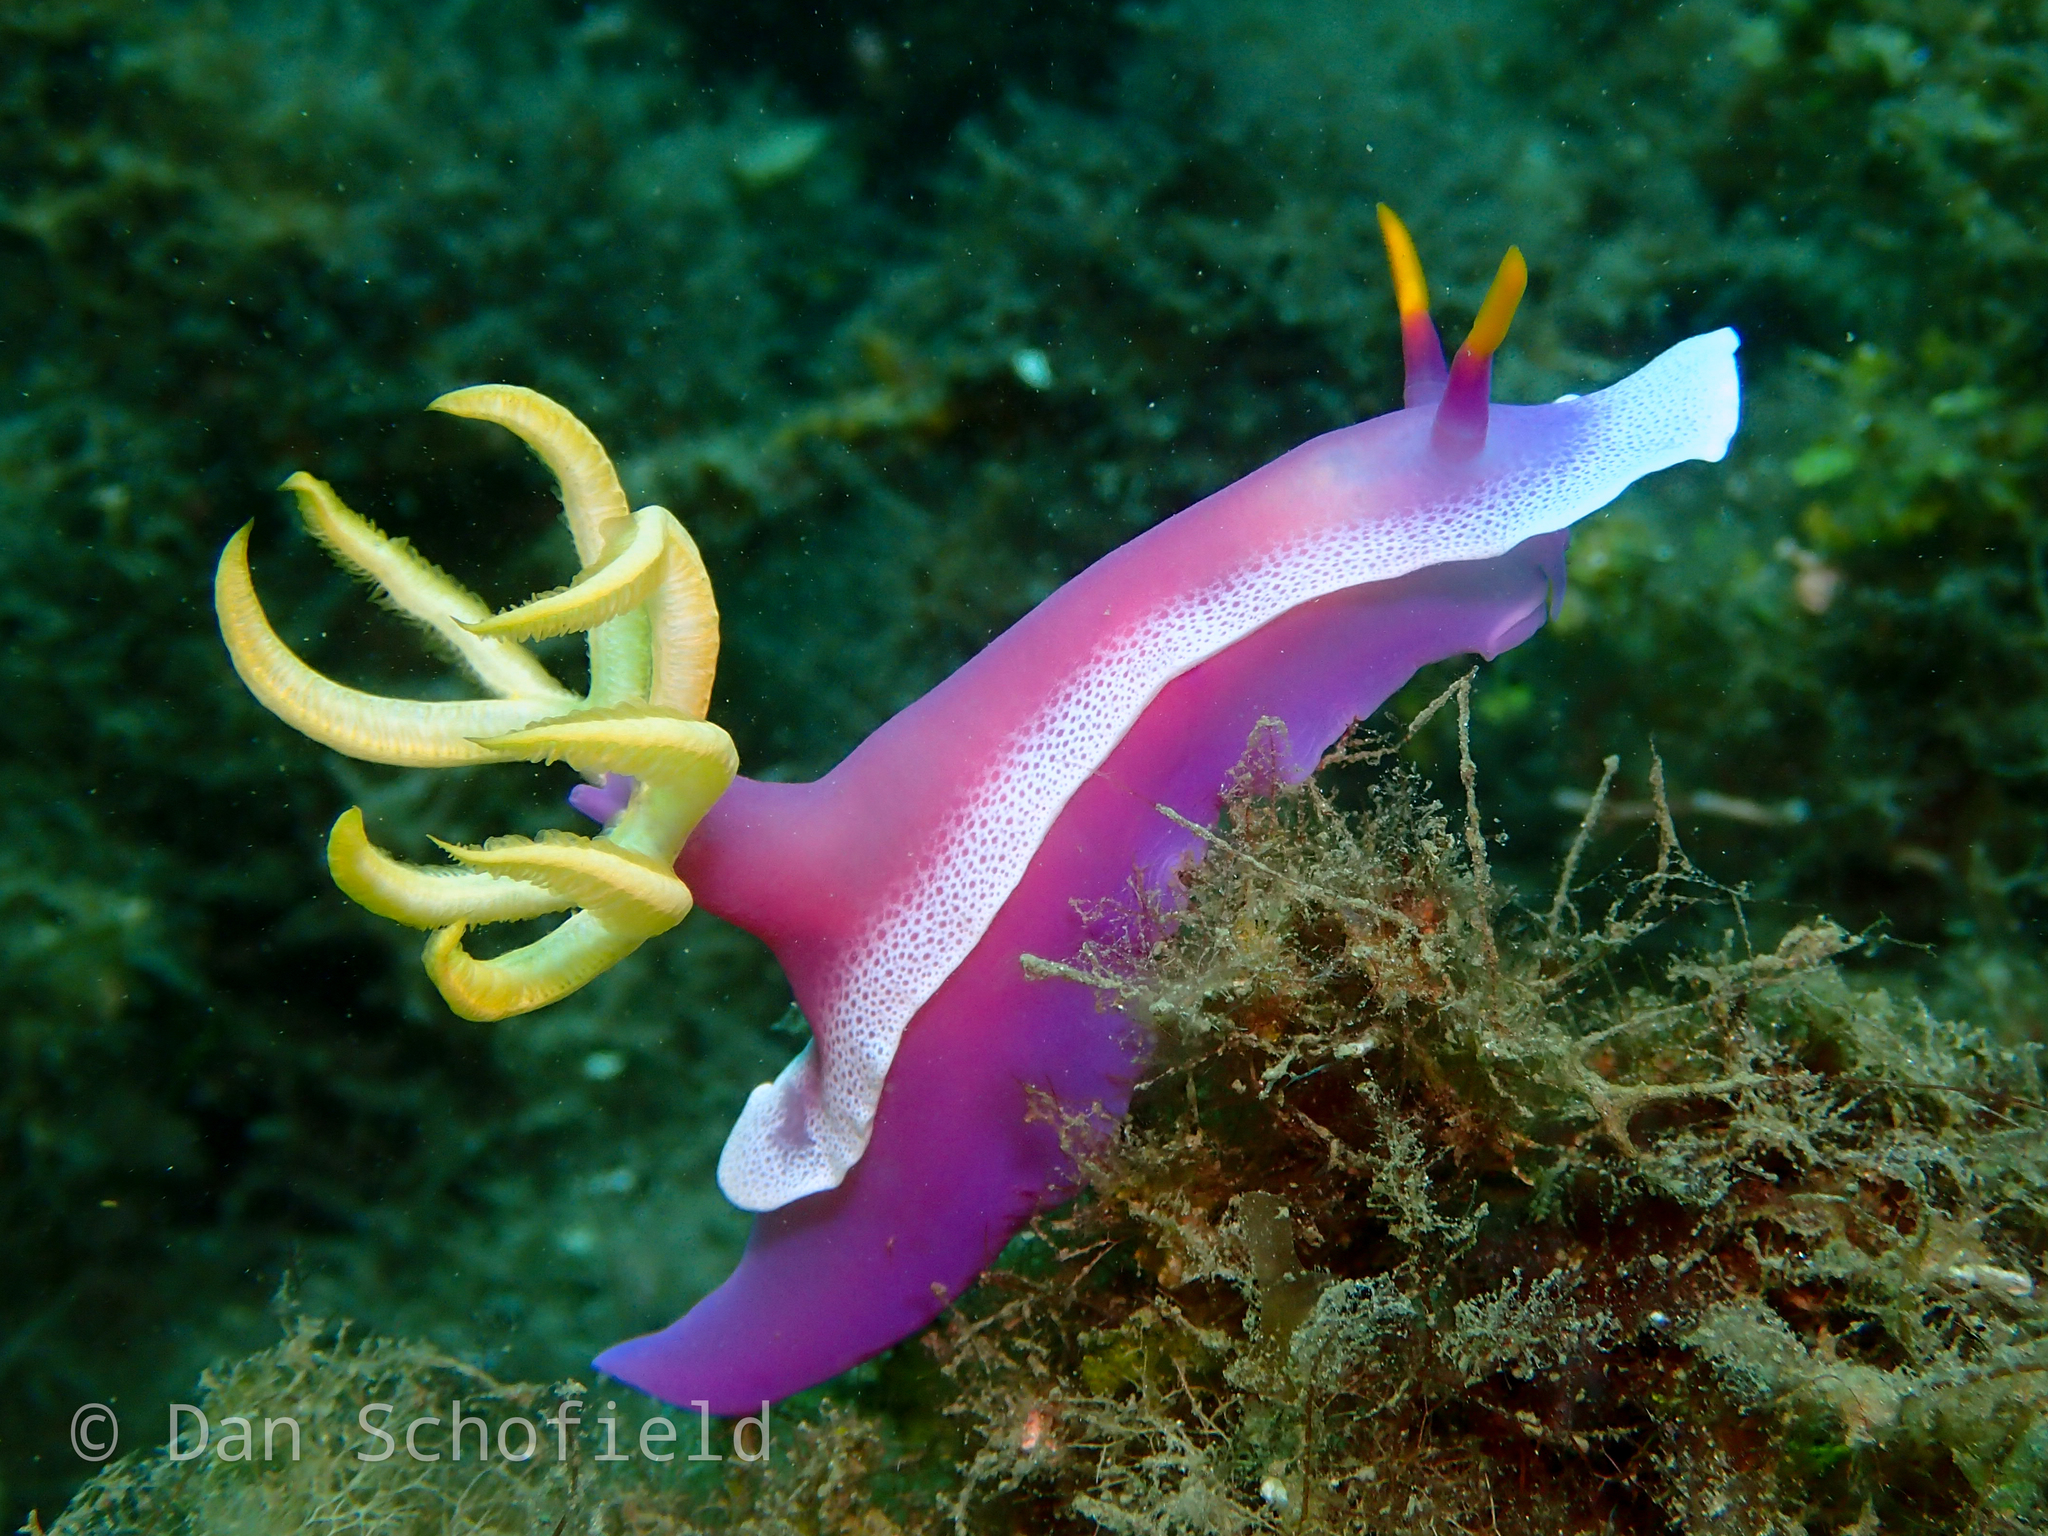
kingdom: Animalia
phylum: Mollusca
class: Gastropoda
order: Nudibranchia
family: Chromodorididae
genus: Hypselodoris
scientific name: Hypselodoris apolegma
